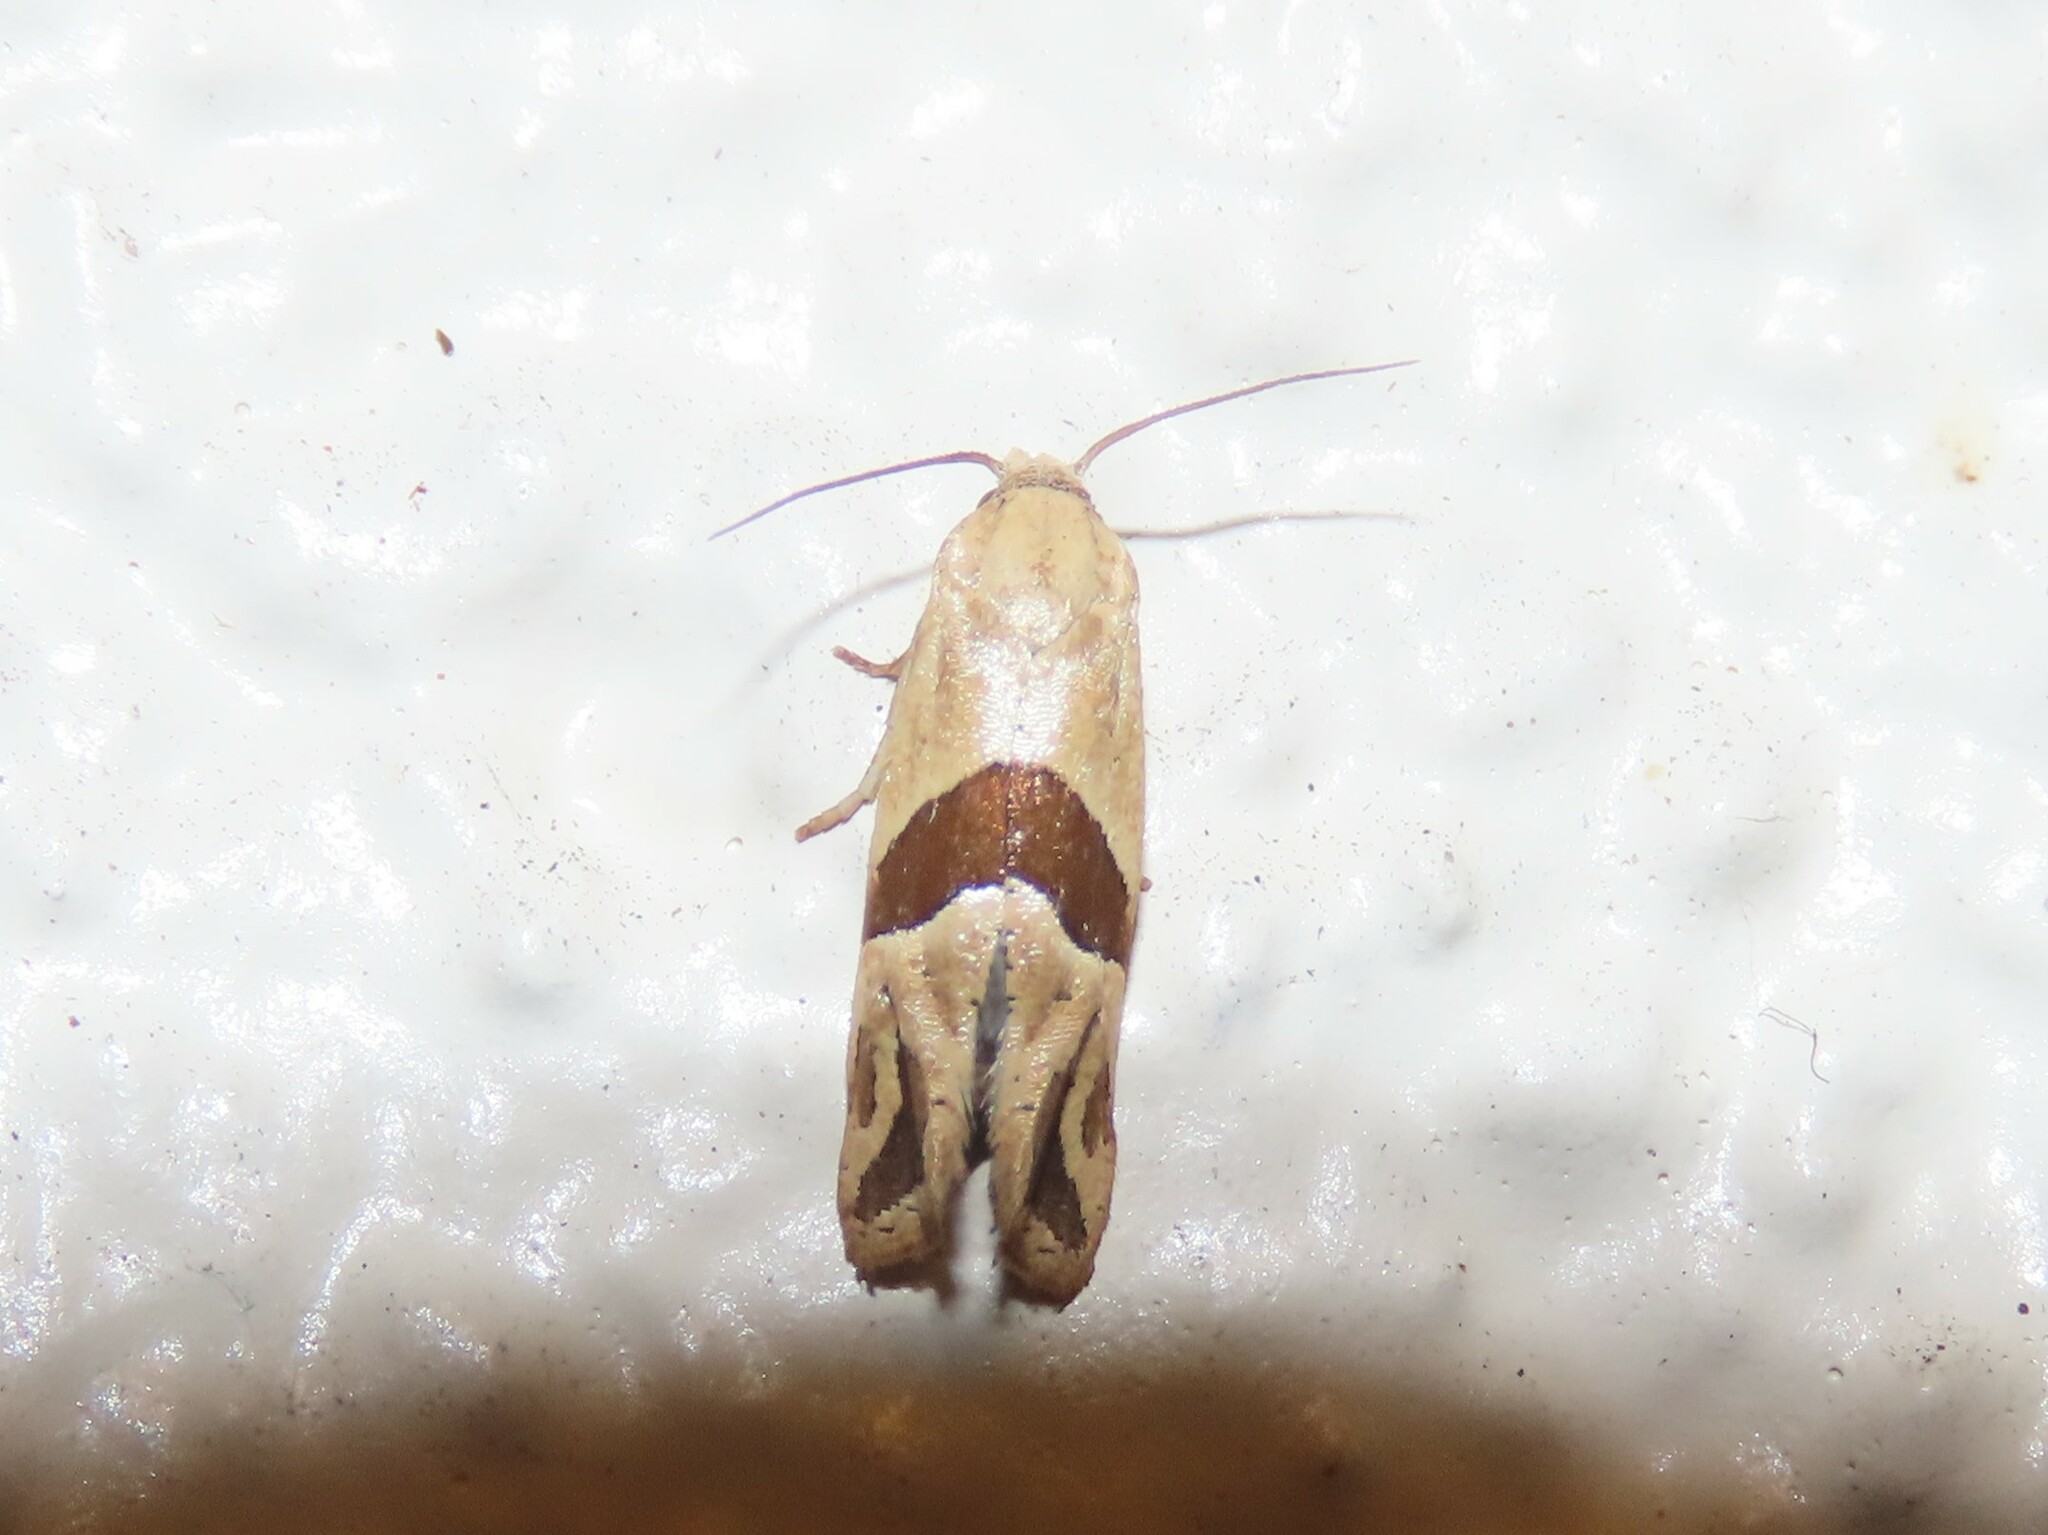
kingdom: Animalia
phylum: Arthropoda
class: Insecta
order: Lepidoptera
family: Tortricidae
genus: Eugnosta
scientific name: Eugnosta sartana
